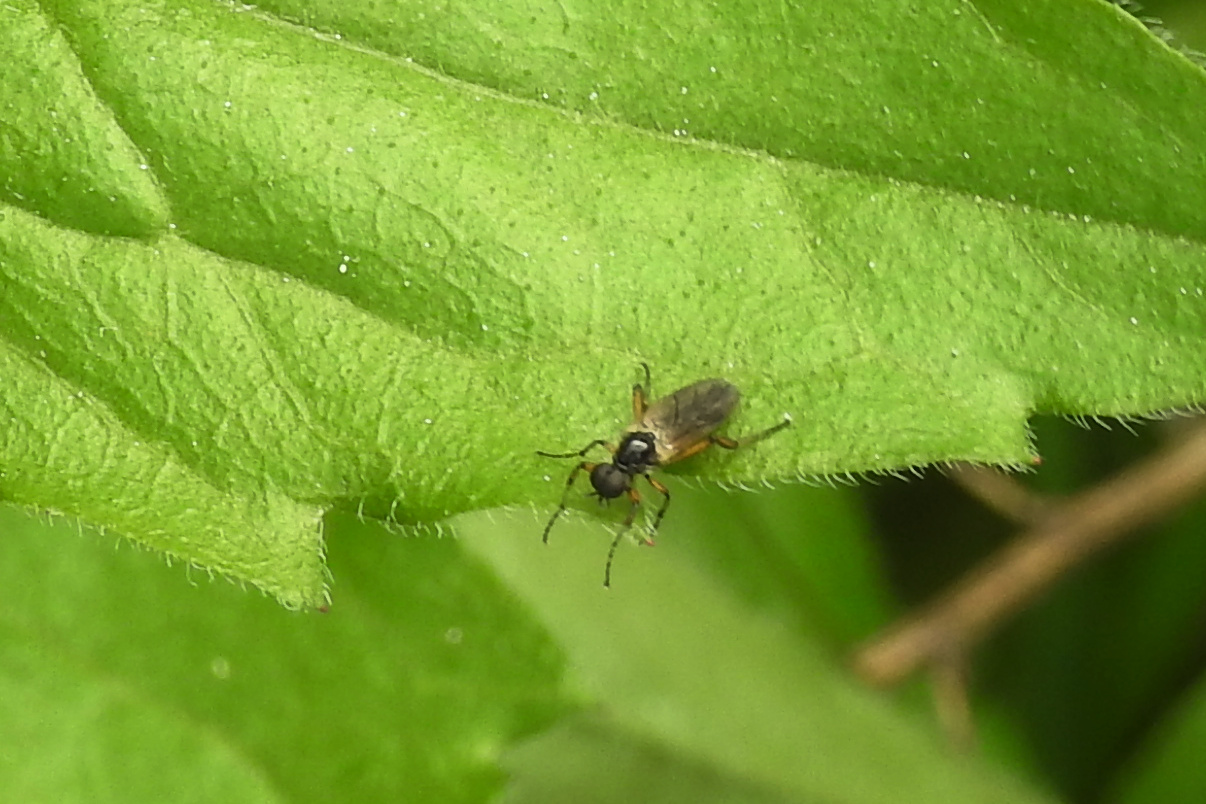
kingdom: Animalia
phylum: Arthropoda
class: Insecta
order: Diptera
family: Bibionidae
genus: Bibio
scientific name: Bibio articulatus
